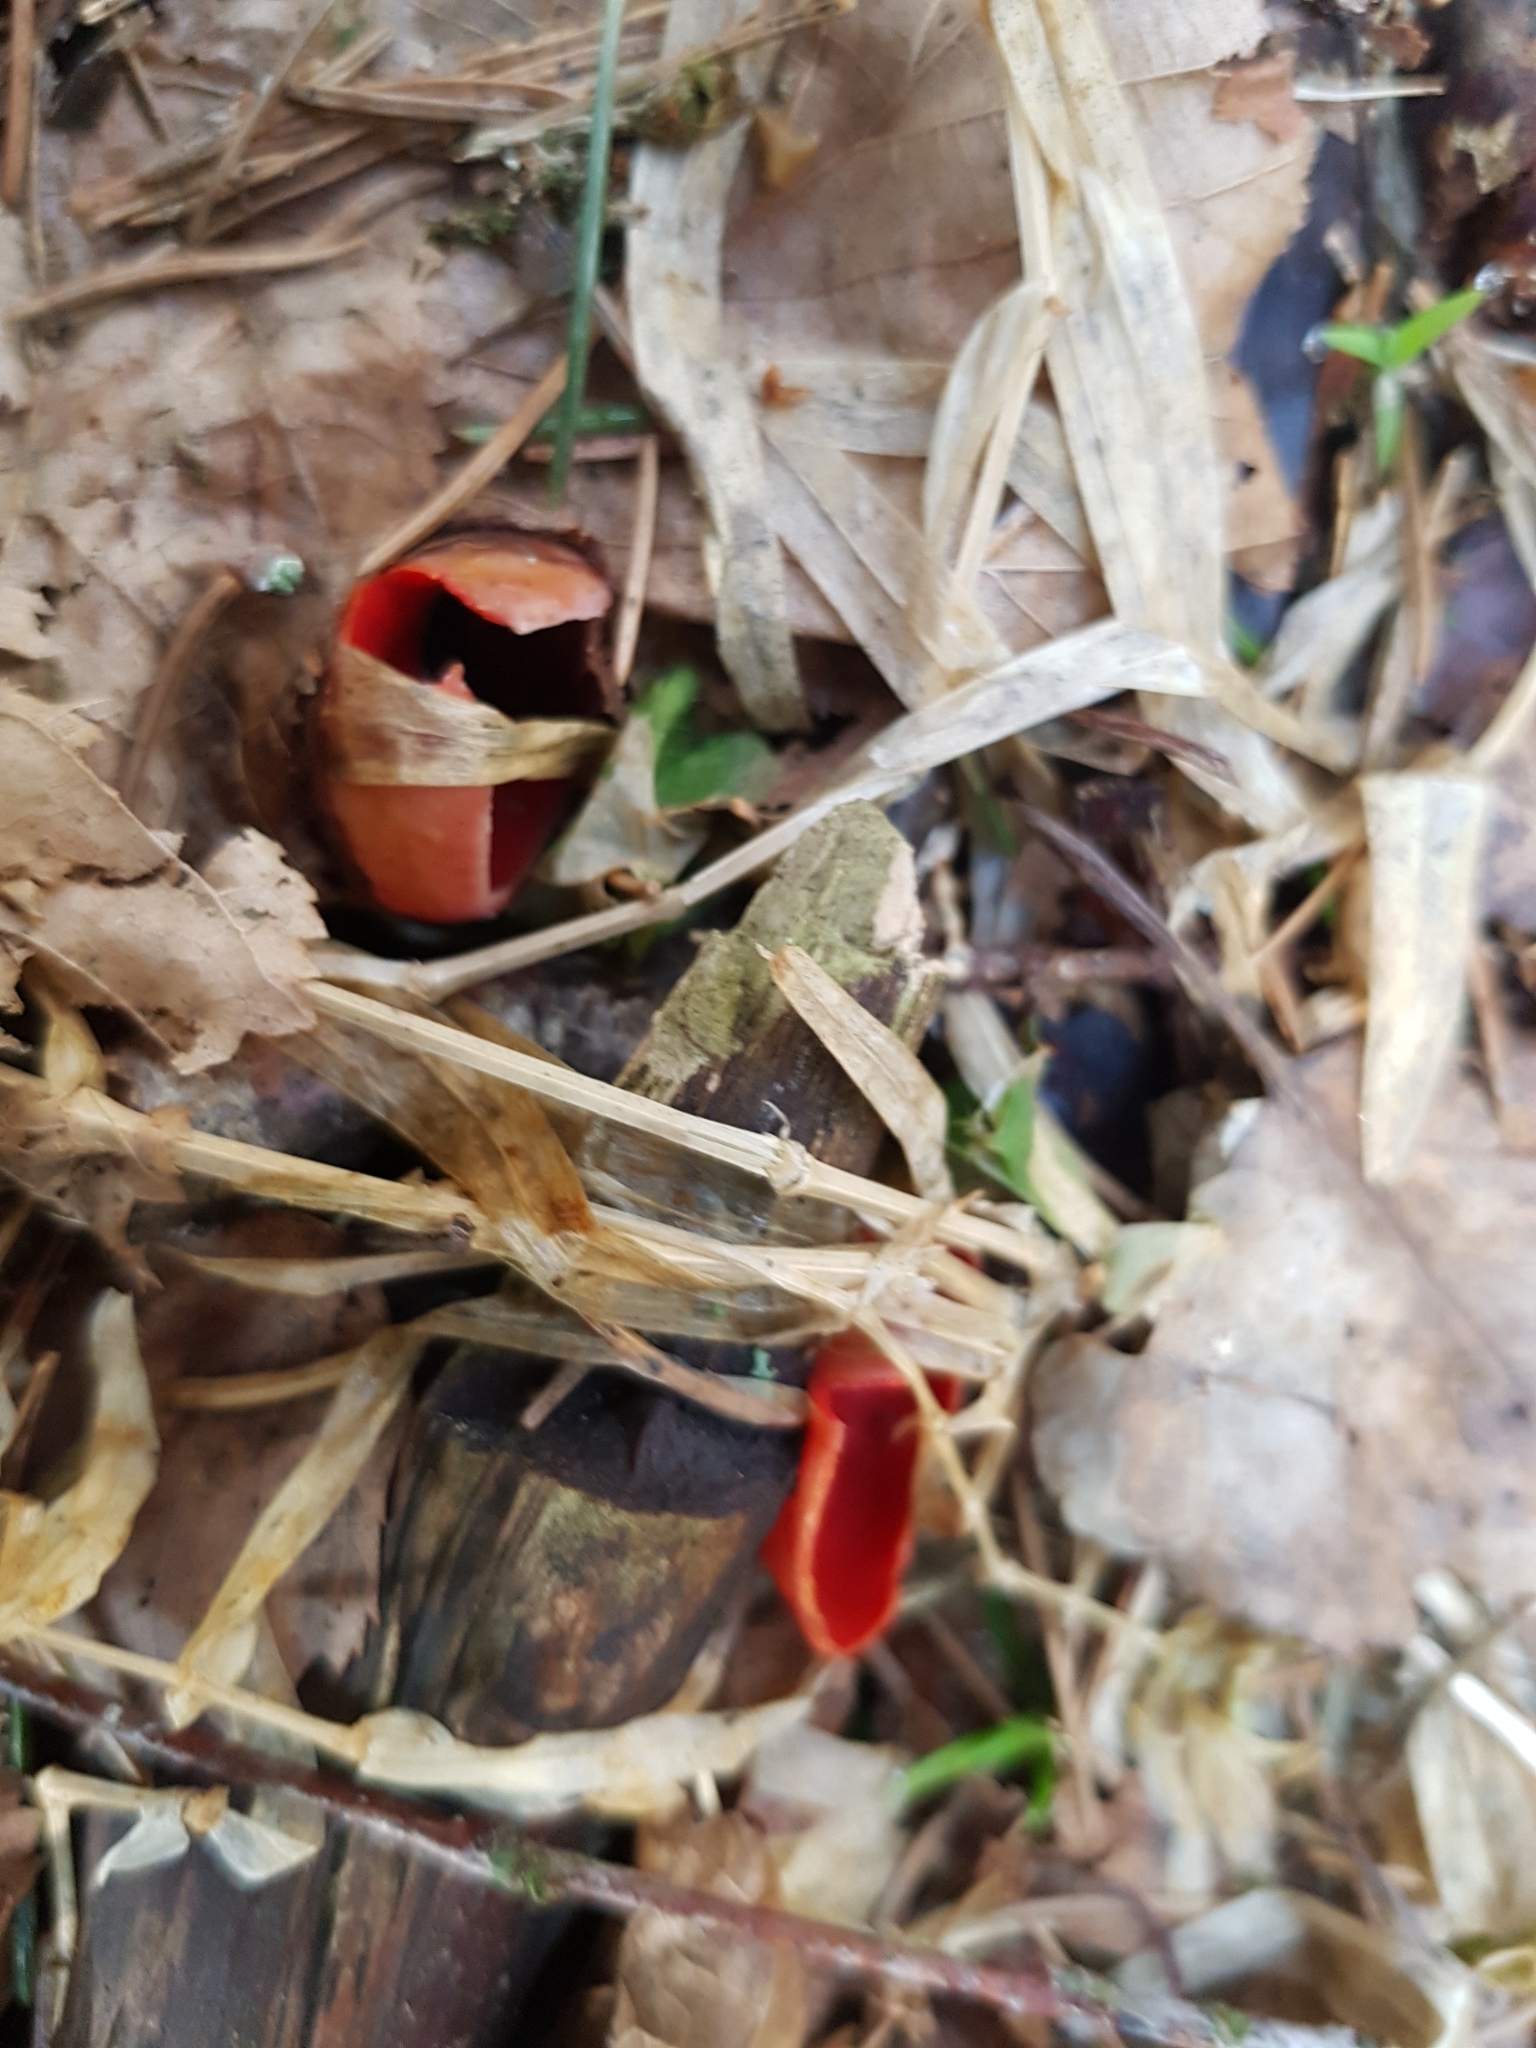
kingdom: Fungi
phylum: Ascomycota
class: Pezizomycetes
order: Pezizales
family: Sarcoscyphaceae
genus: Sarcoscypha
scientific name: Sarcoscypha
